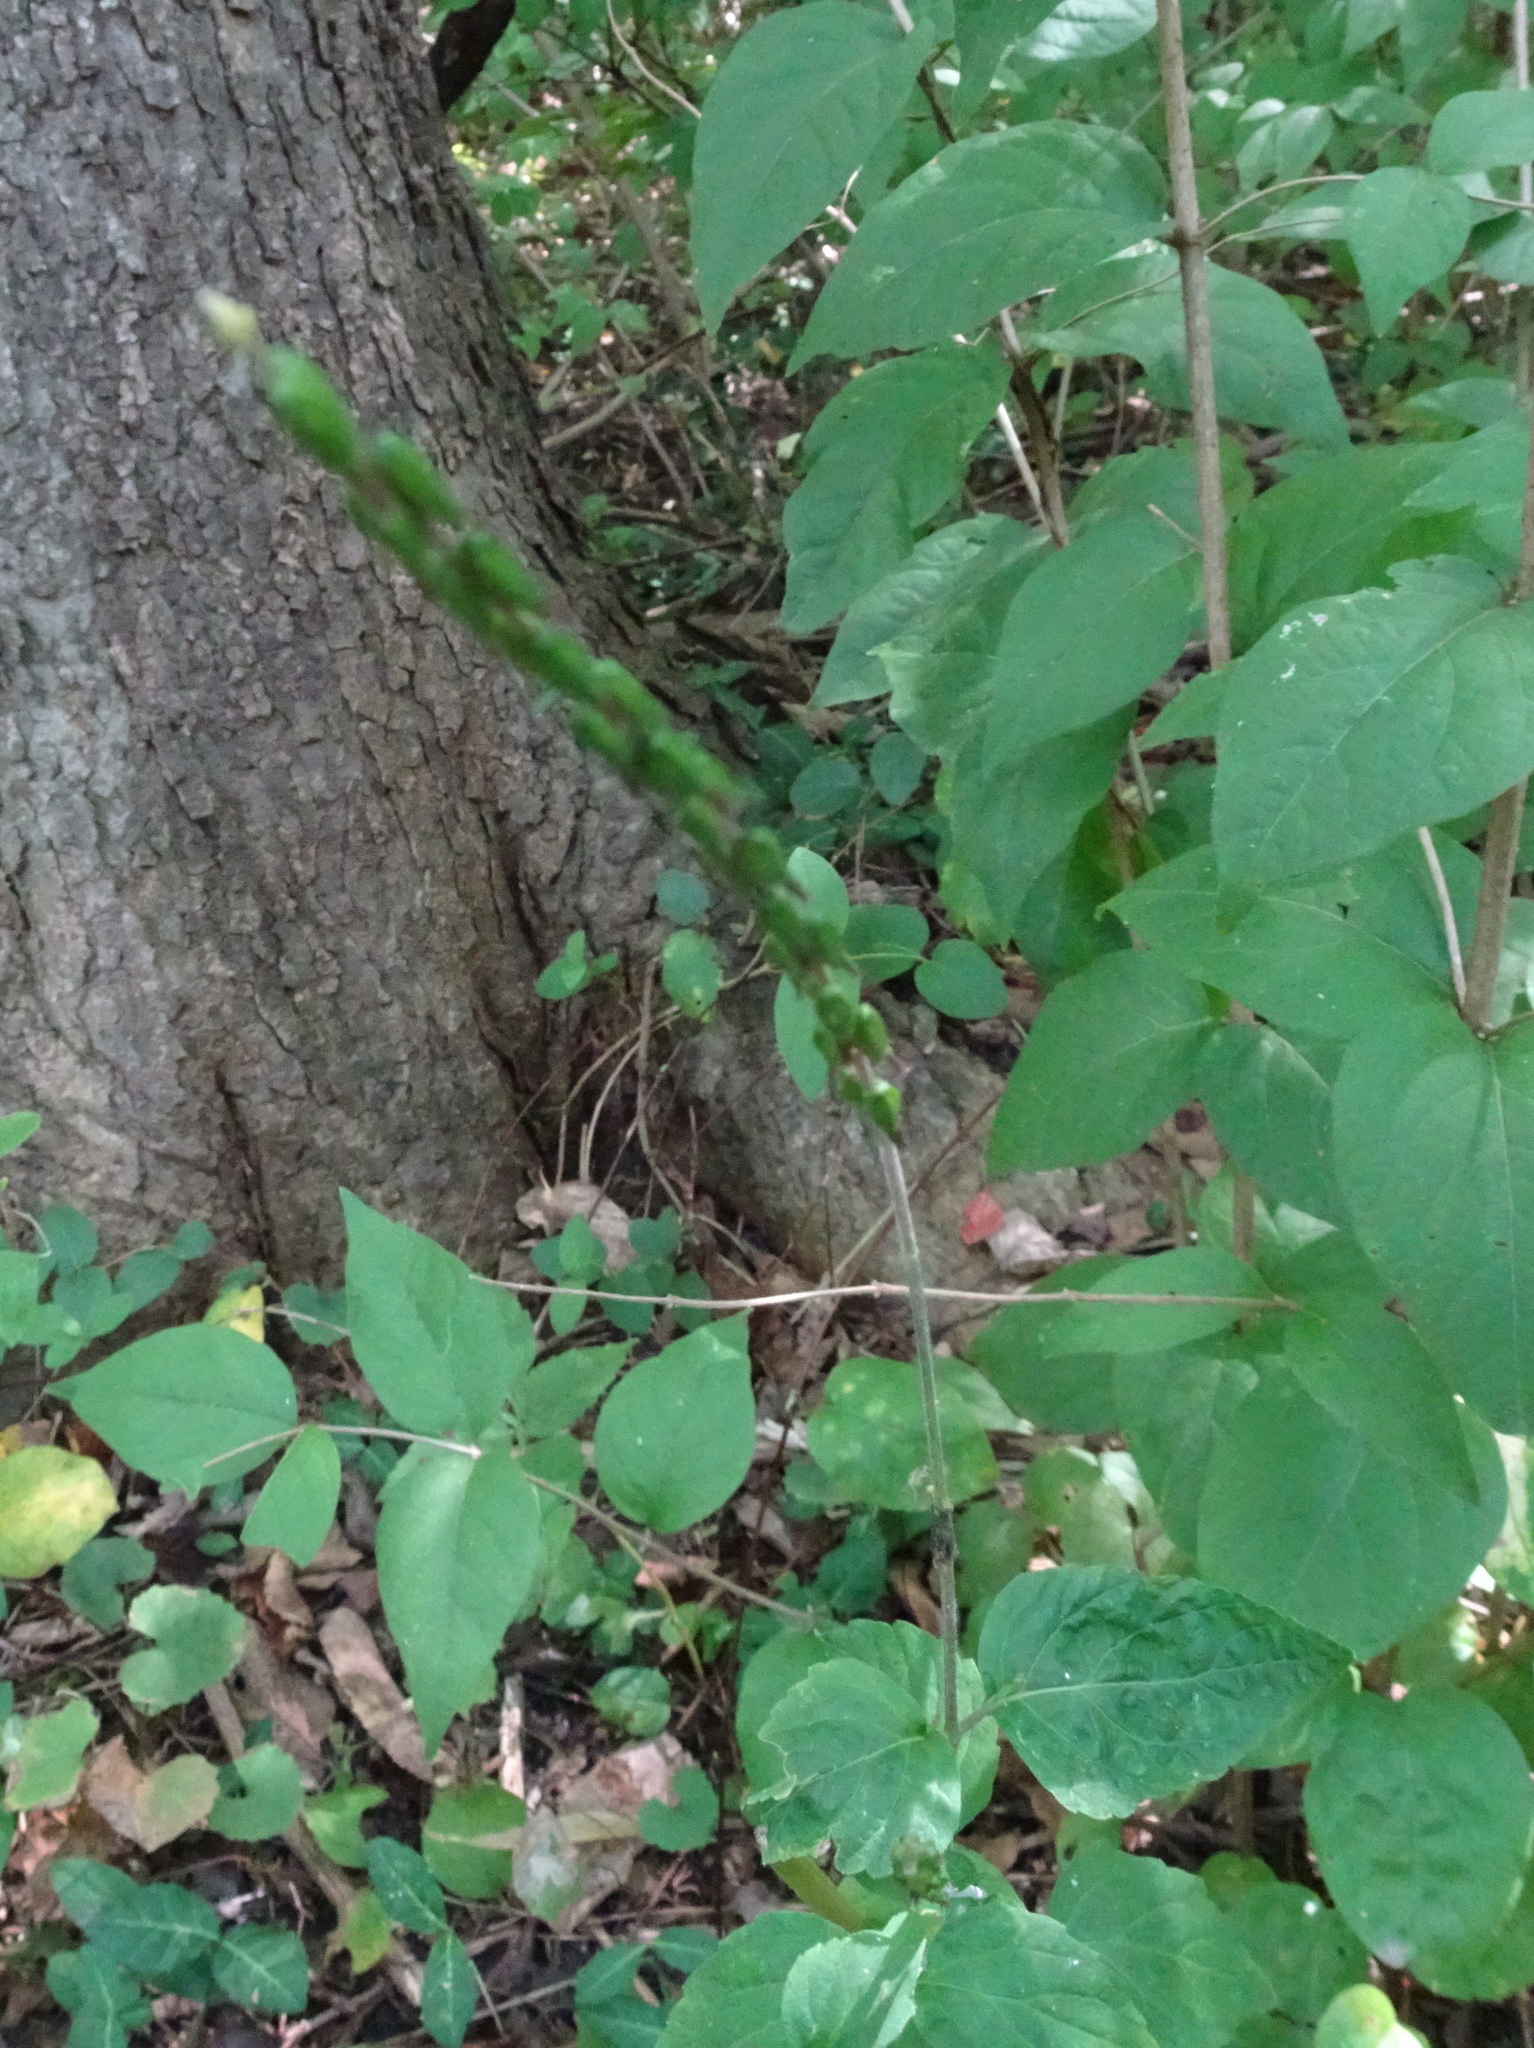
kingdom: Plantae
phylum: Tracheophyta
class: Magnoliopsida
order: Lamiales
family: Phrymaceae
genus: Phryma
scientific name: Phryma leptostachya
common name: American lopseed
